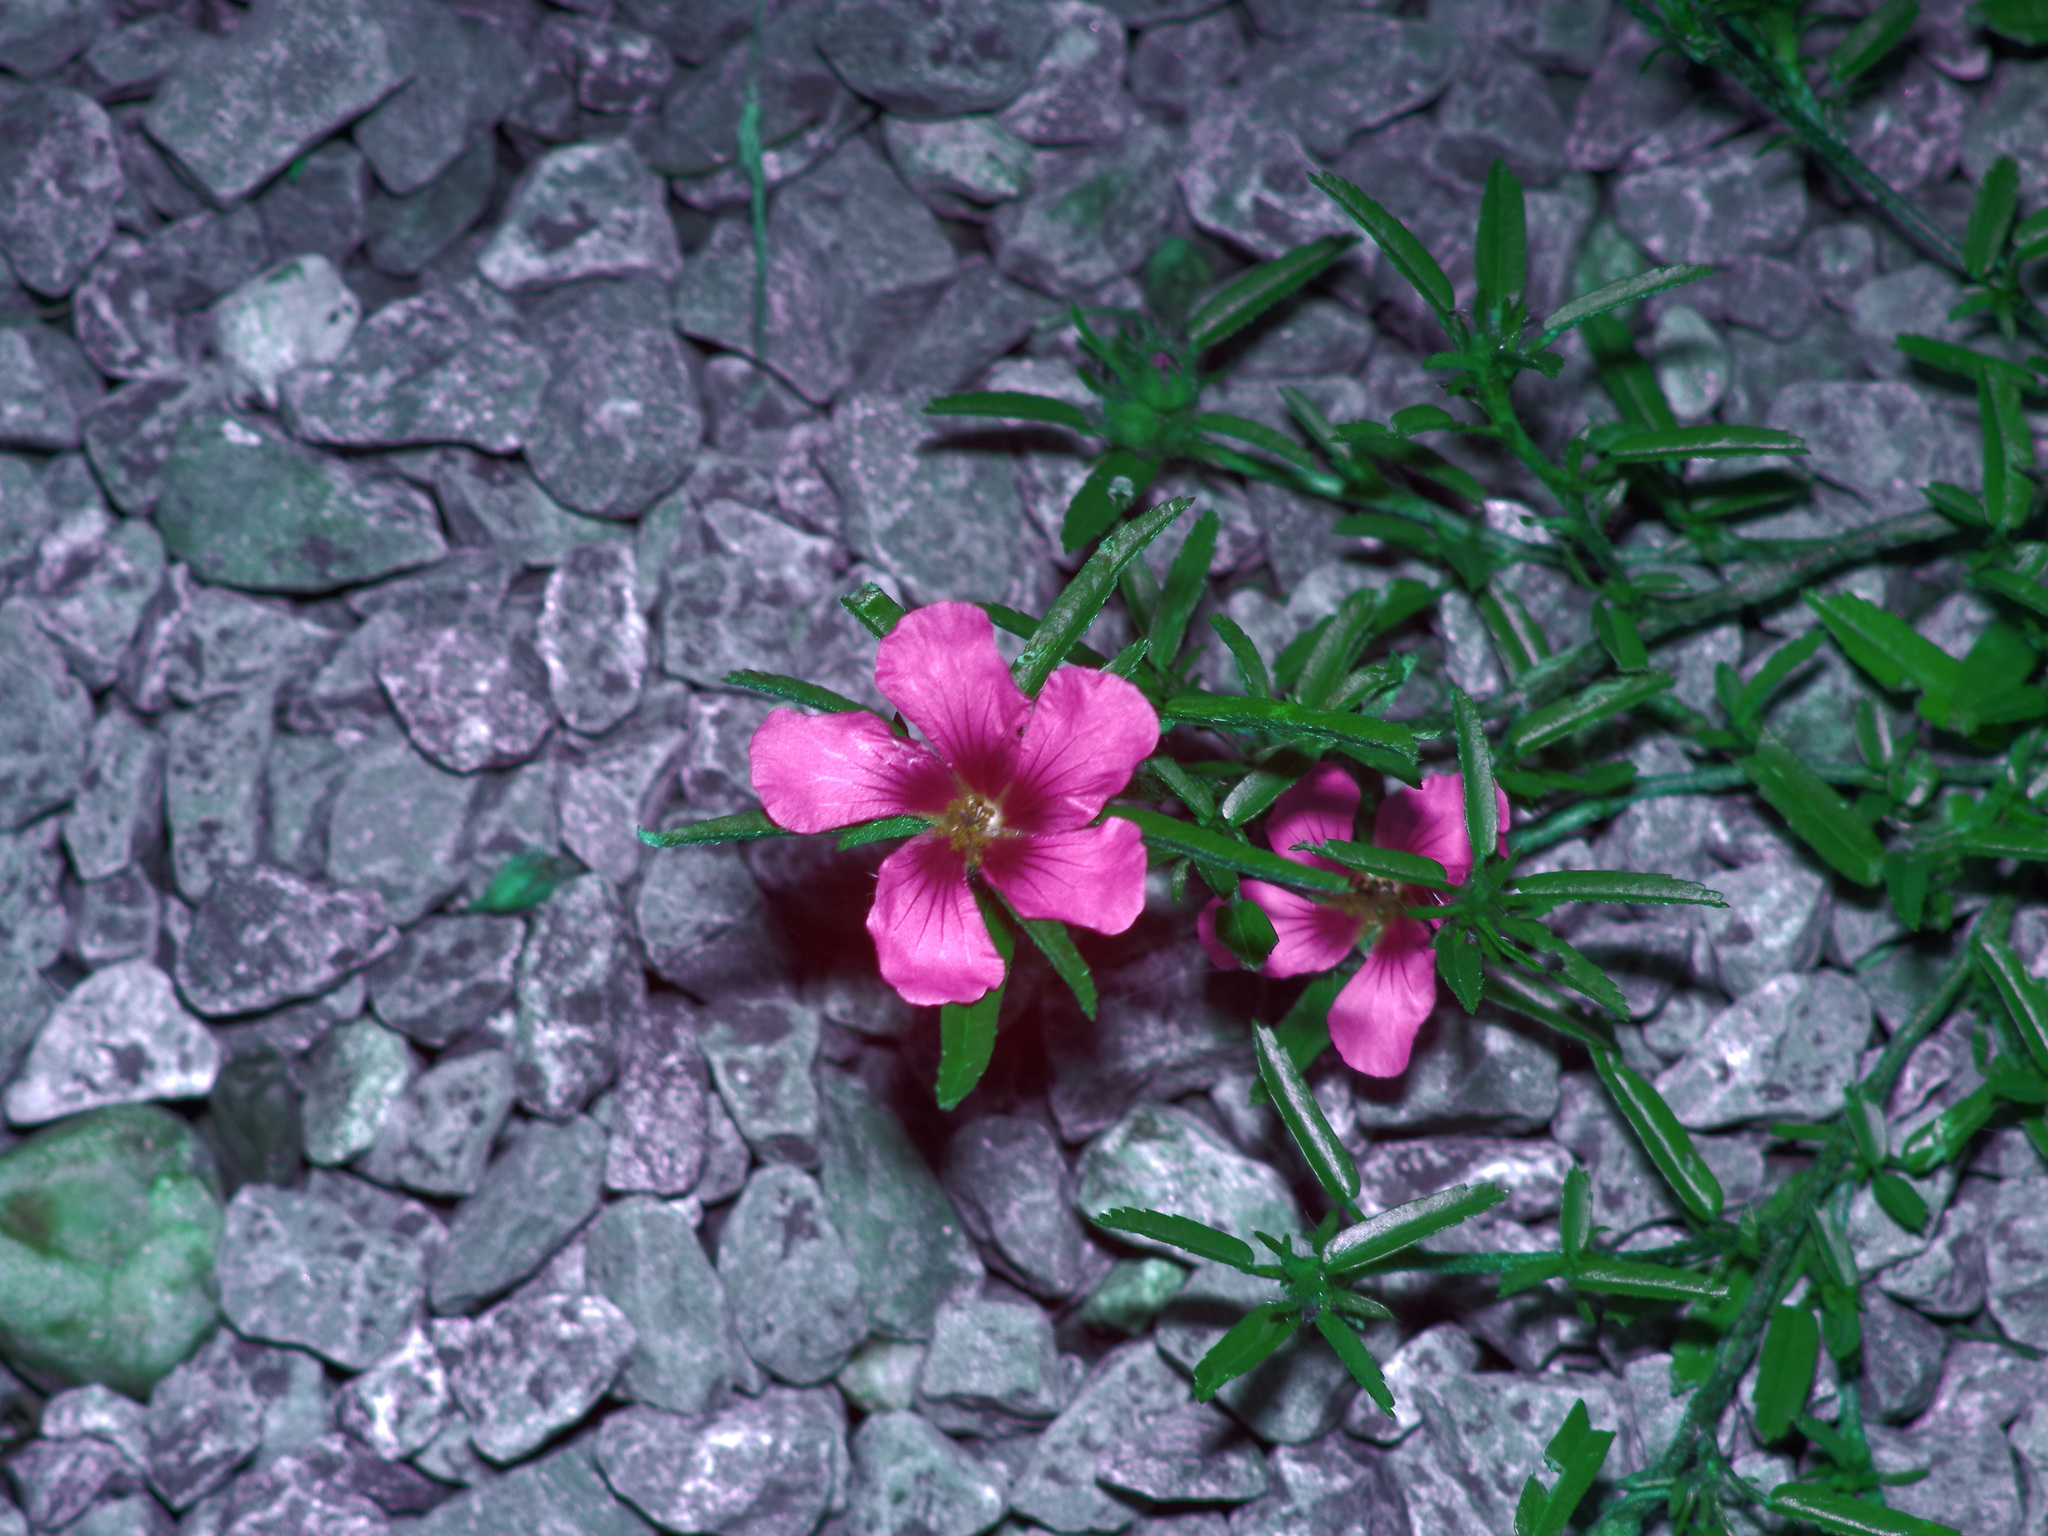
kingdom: Plantae
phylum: Tracheophyta
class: Magnoliopsida
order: Malvales
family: Malvaceae
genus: Sida
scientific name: Sida ciliaris
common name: Bracted fanpetals
